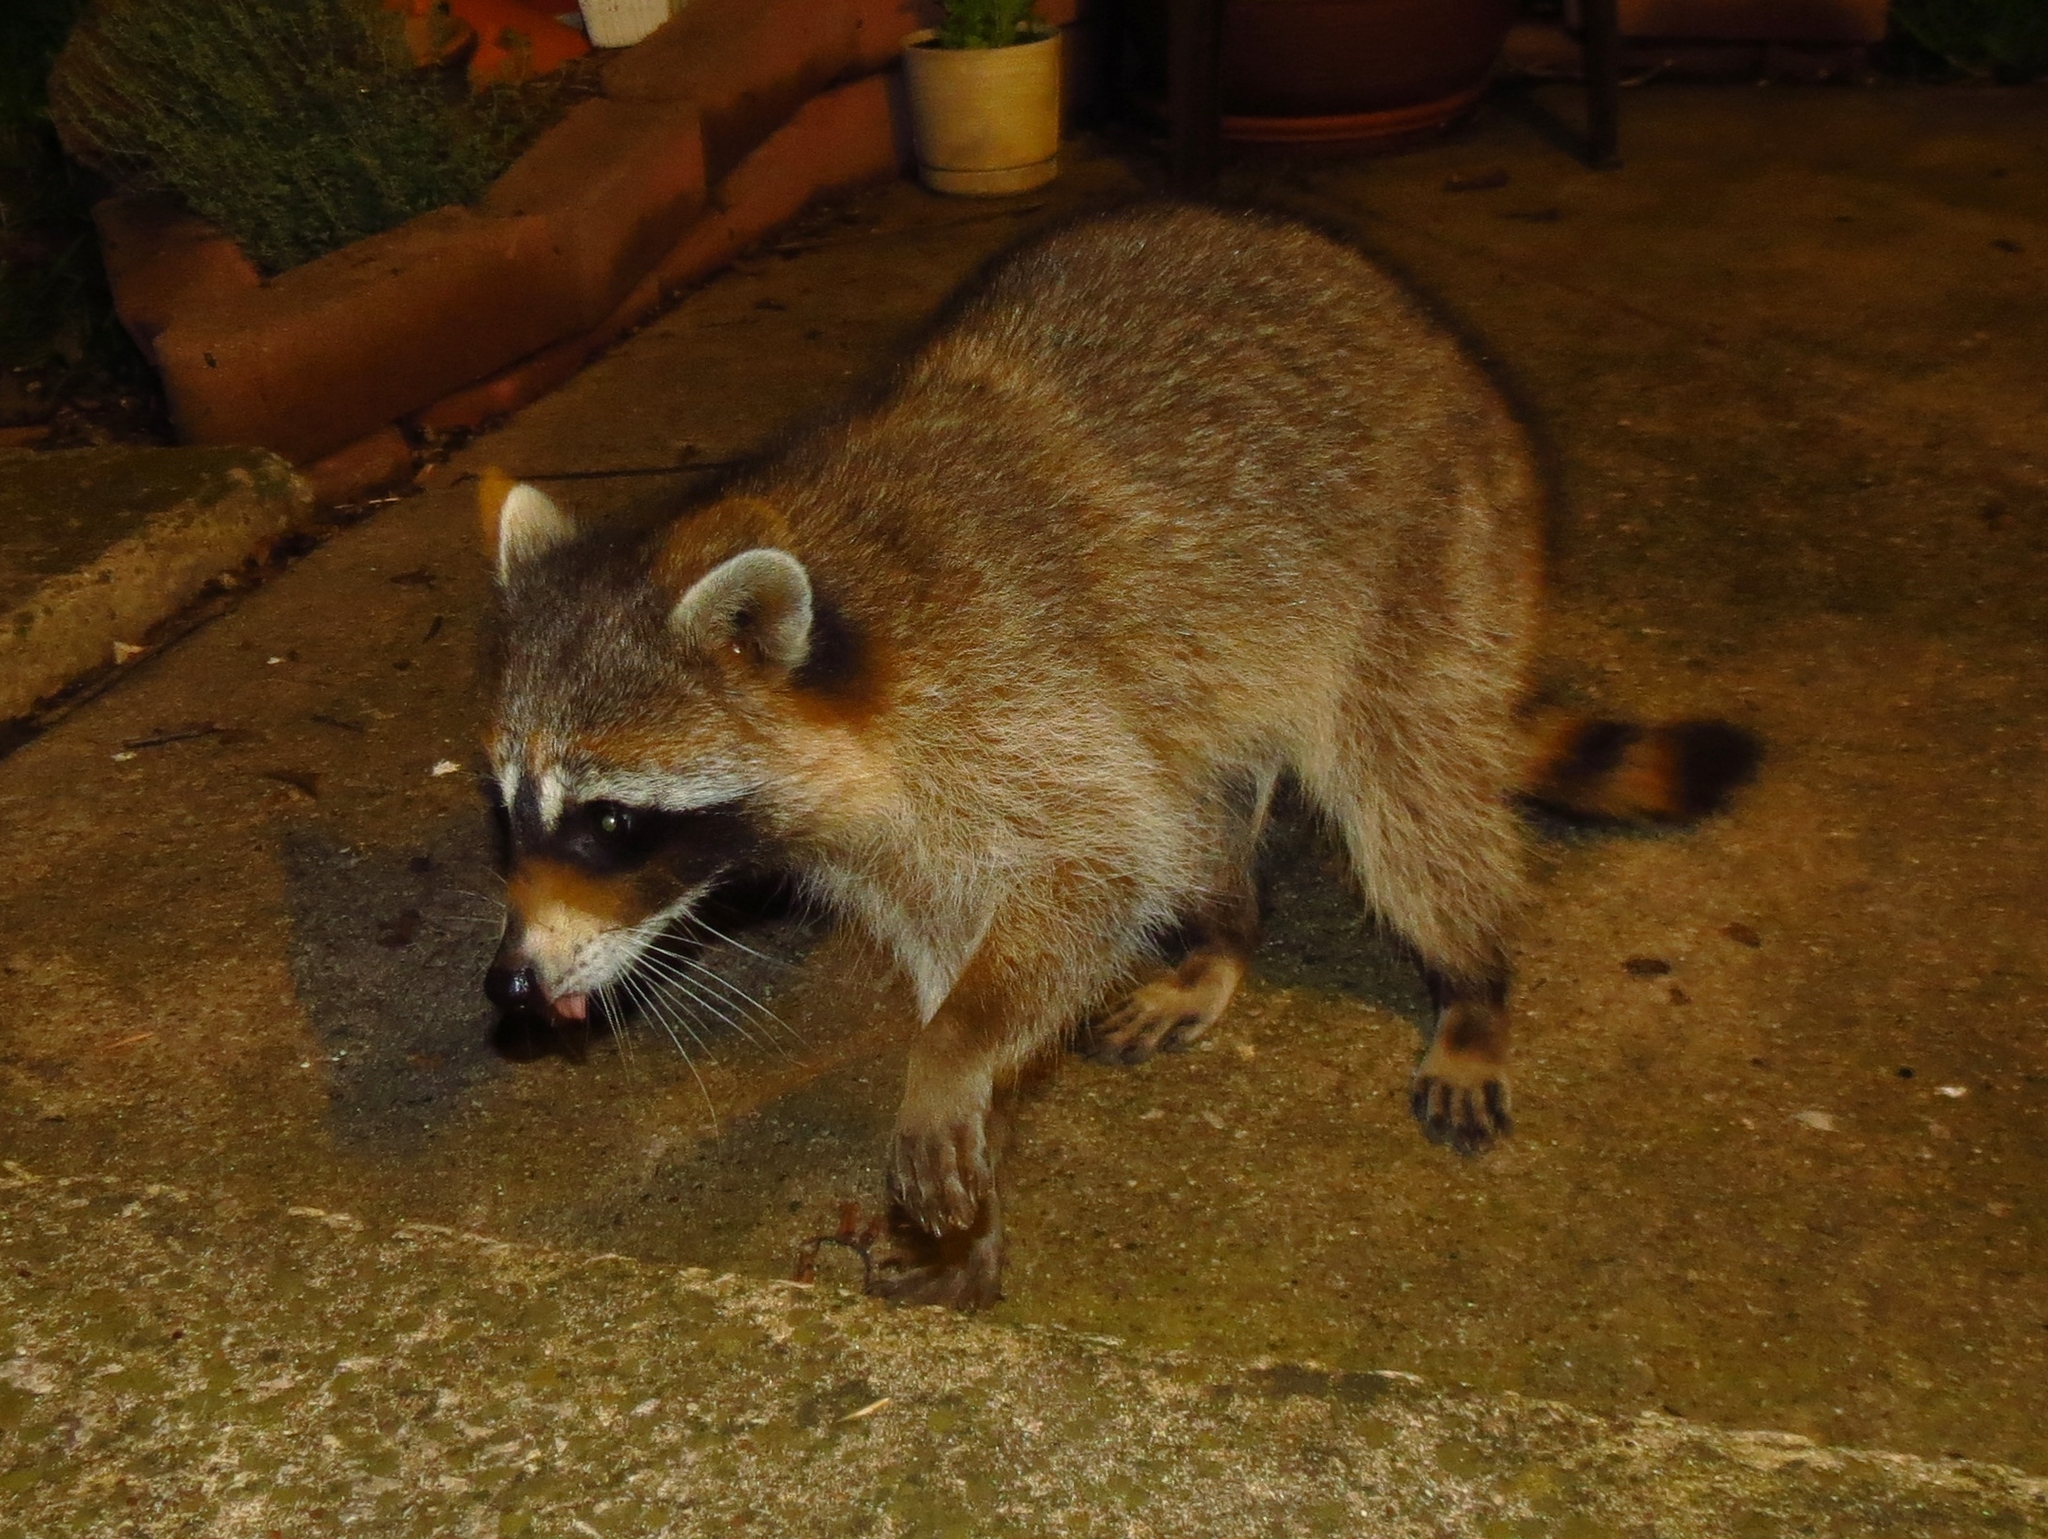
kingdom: Animalia
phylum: Chordata
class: Mammalia
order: Carnivora
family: Procyonidae
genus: Procyon
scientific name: Procyon lotor
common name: Raccoon
